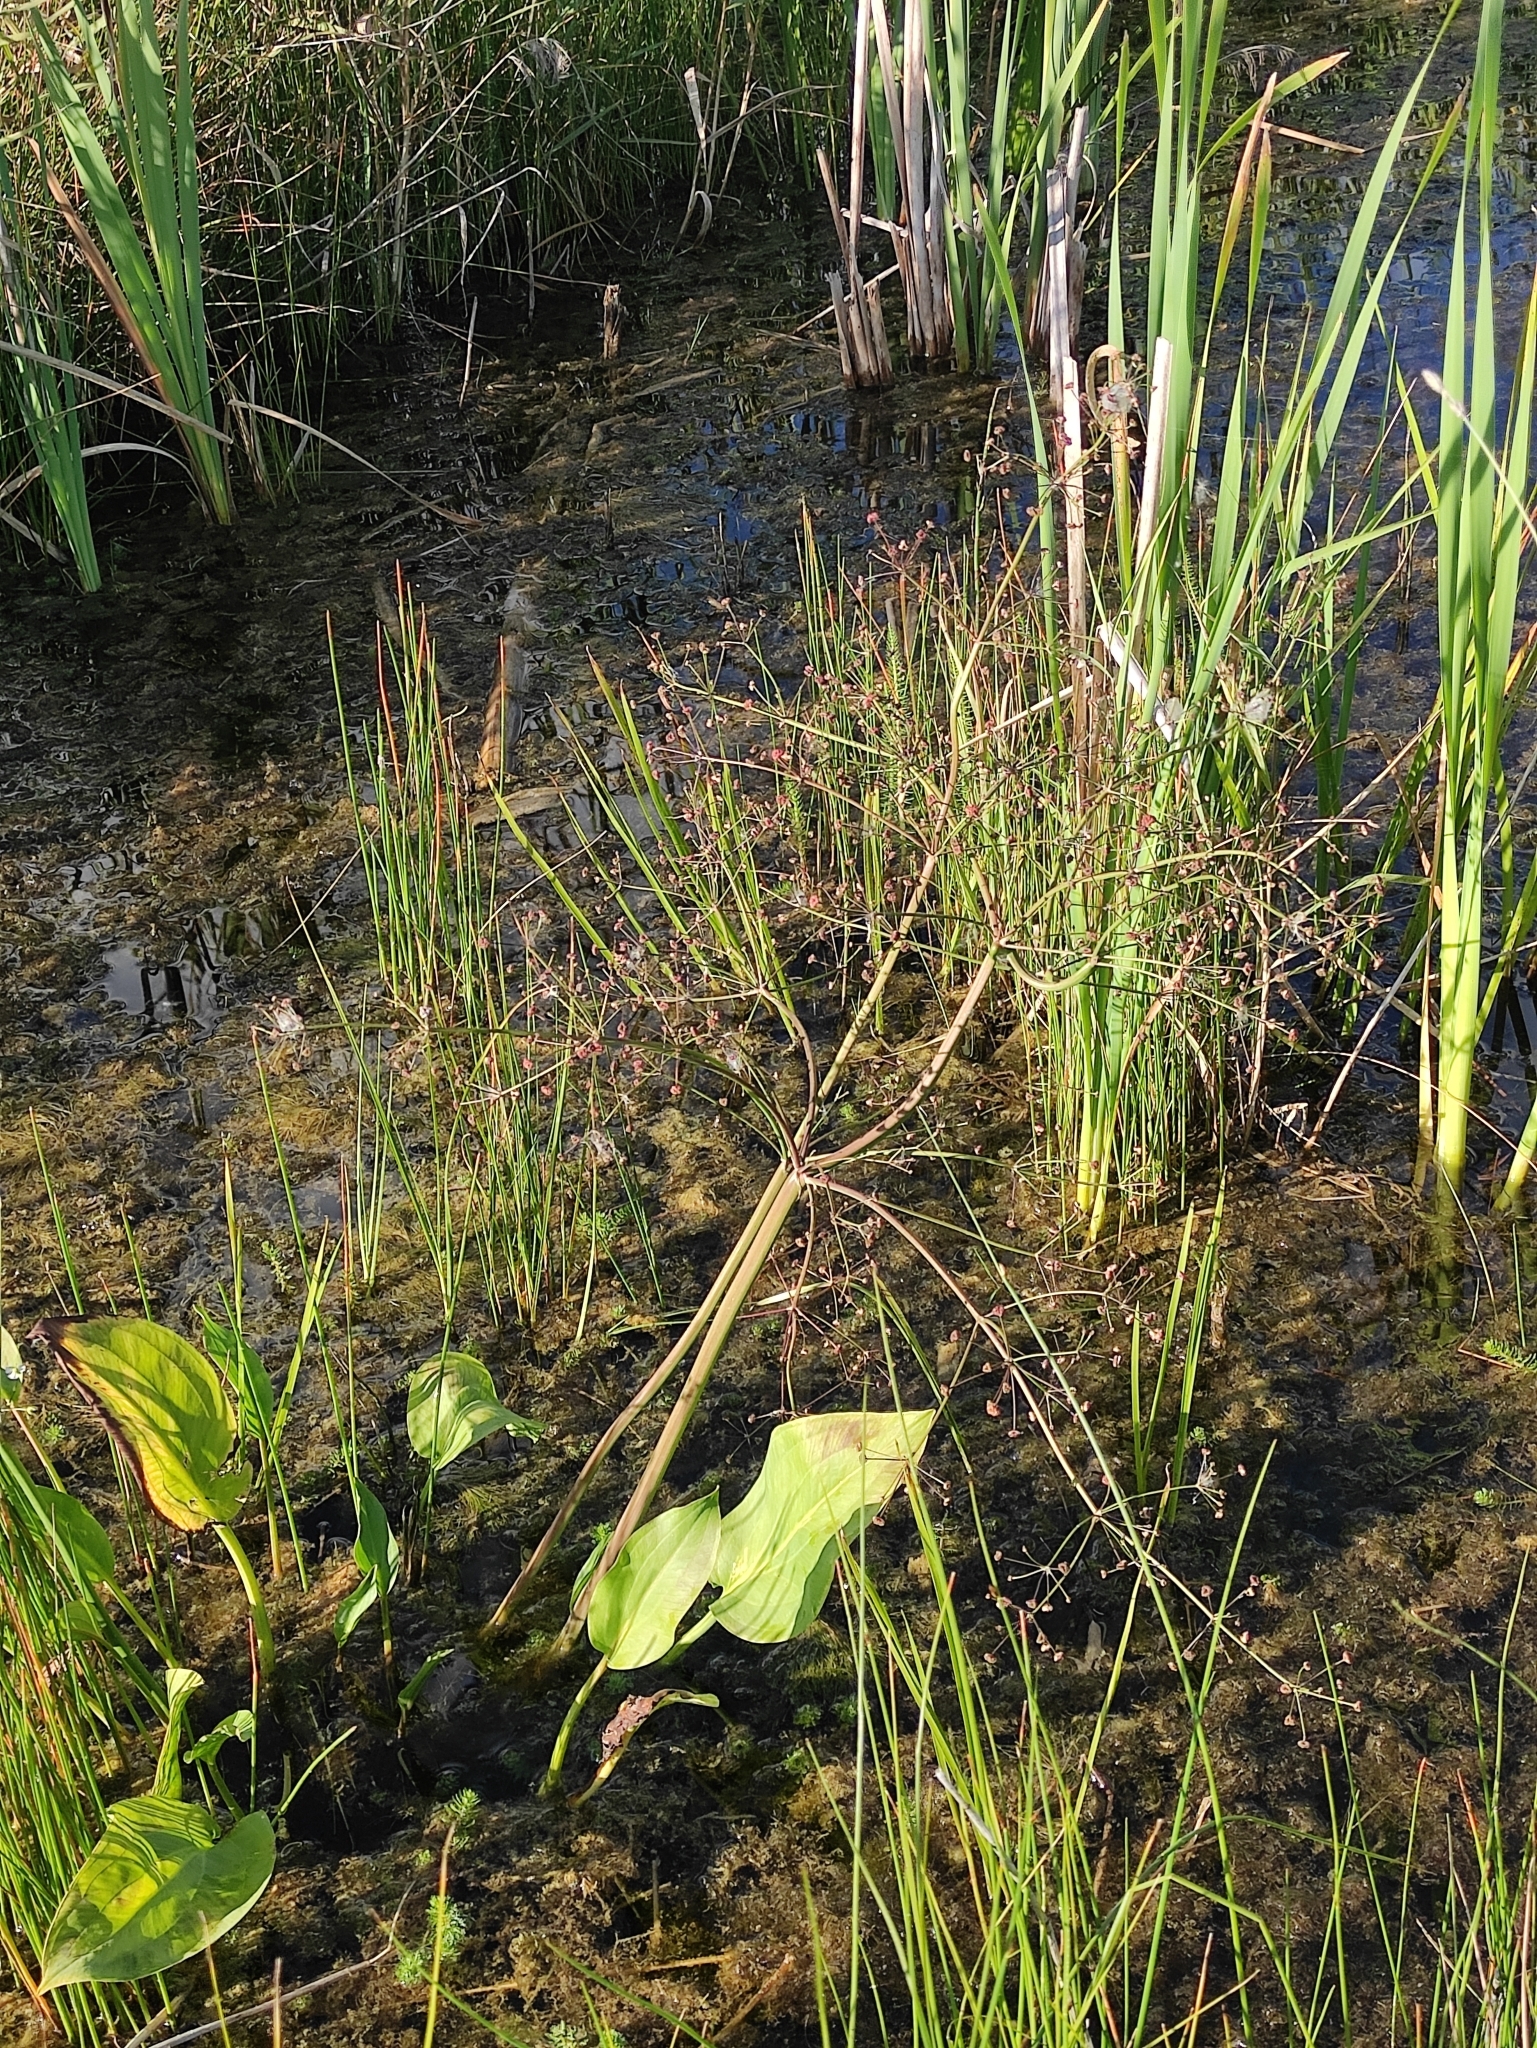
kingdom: Plantae
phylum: Tracheophyta
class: Liliopsida
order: Alismatales
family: Alismataceae
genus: Alisma
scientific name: Alisma plantago-aquatica
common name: Water-plantain
